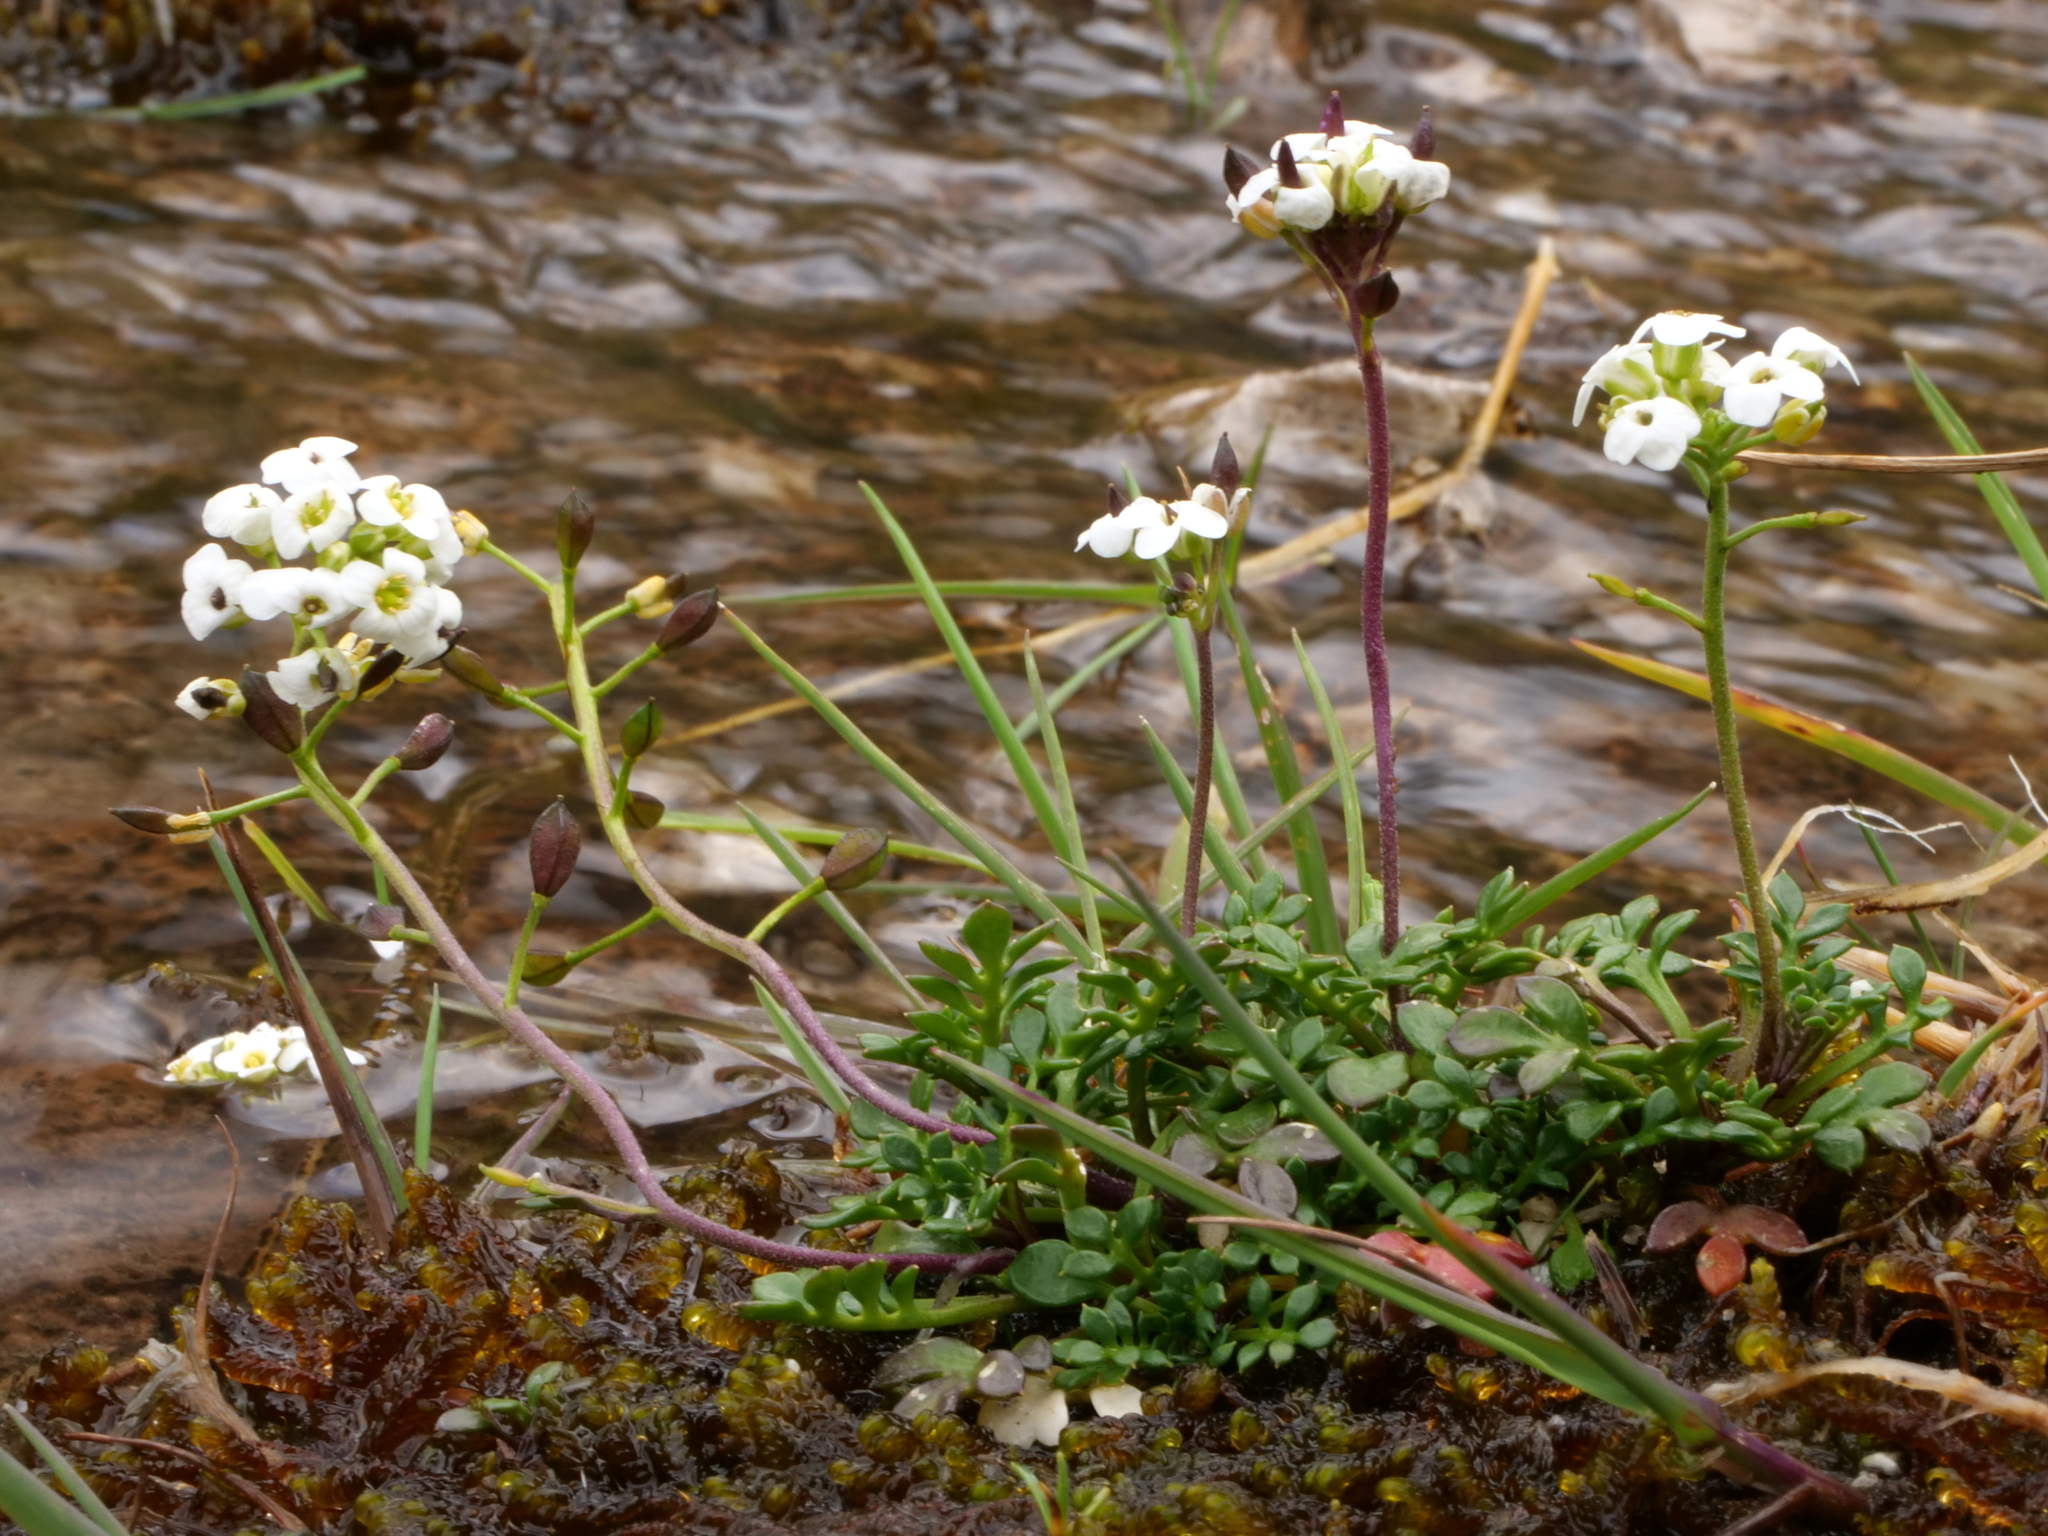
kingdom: Plantae
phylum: Tracheophyta
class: Magnoliopsida
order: Brassicales
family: Brassicaceae
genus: Hornungia
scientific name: Hornungia alpina
